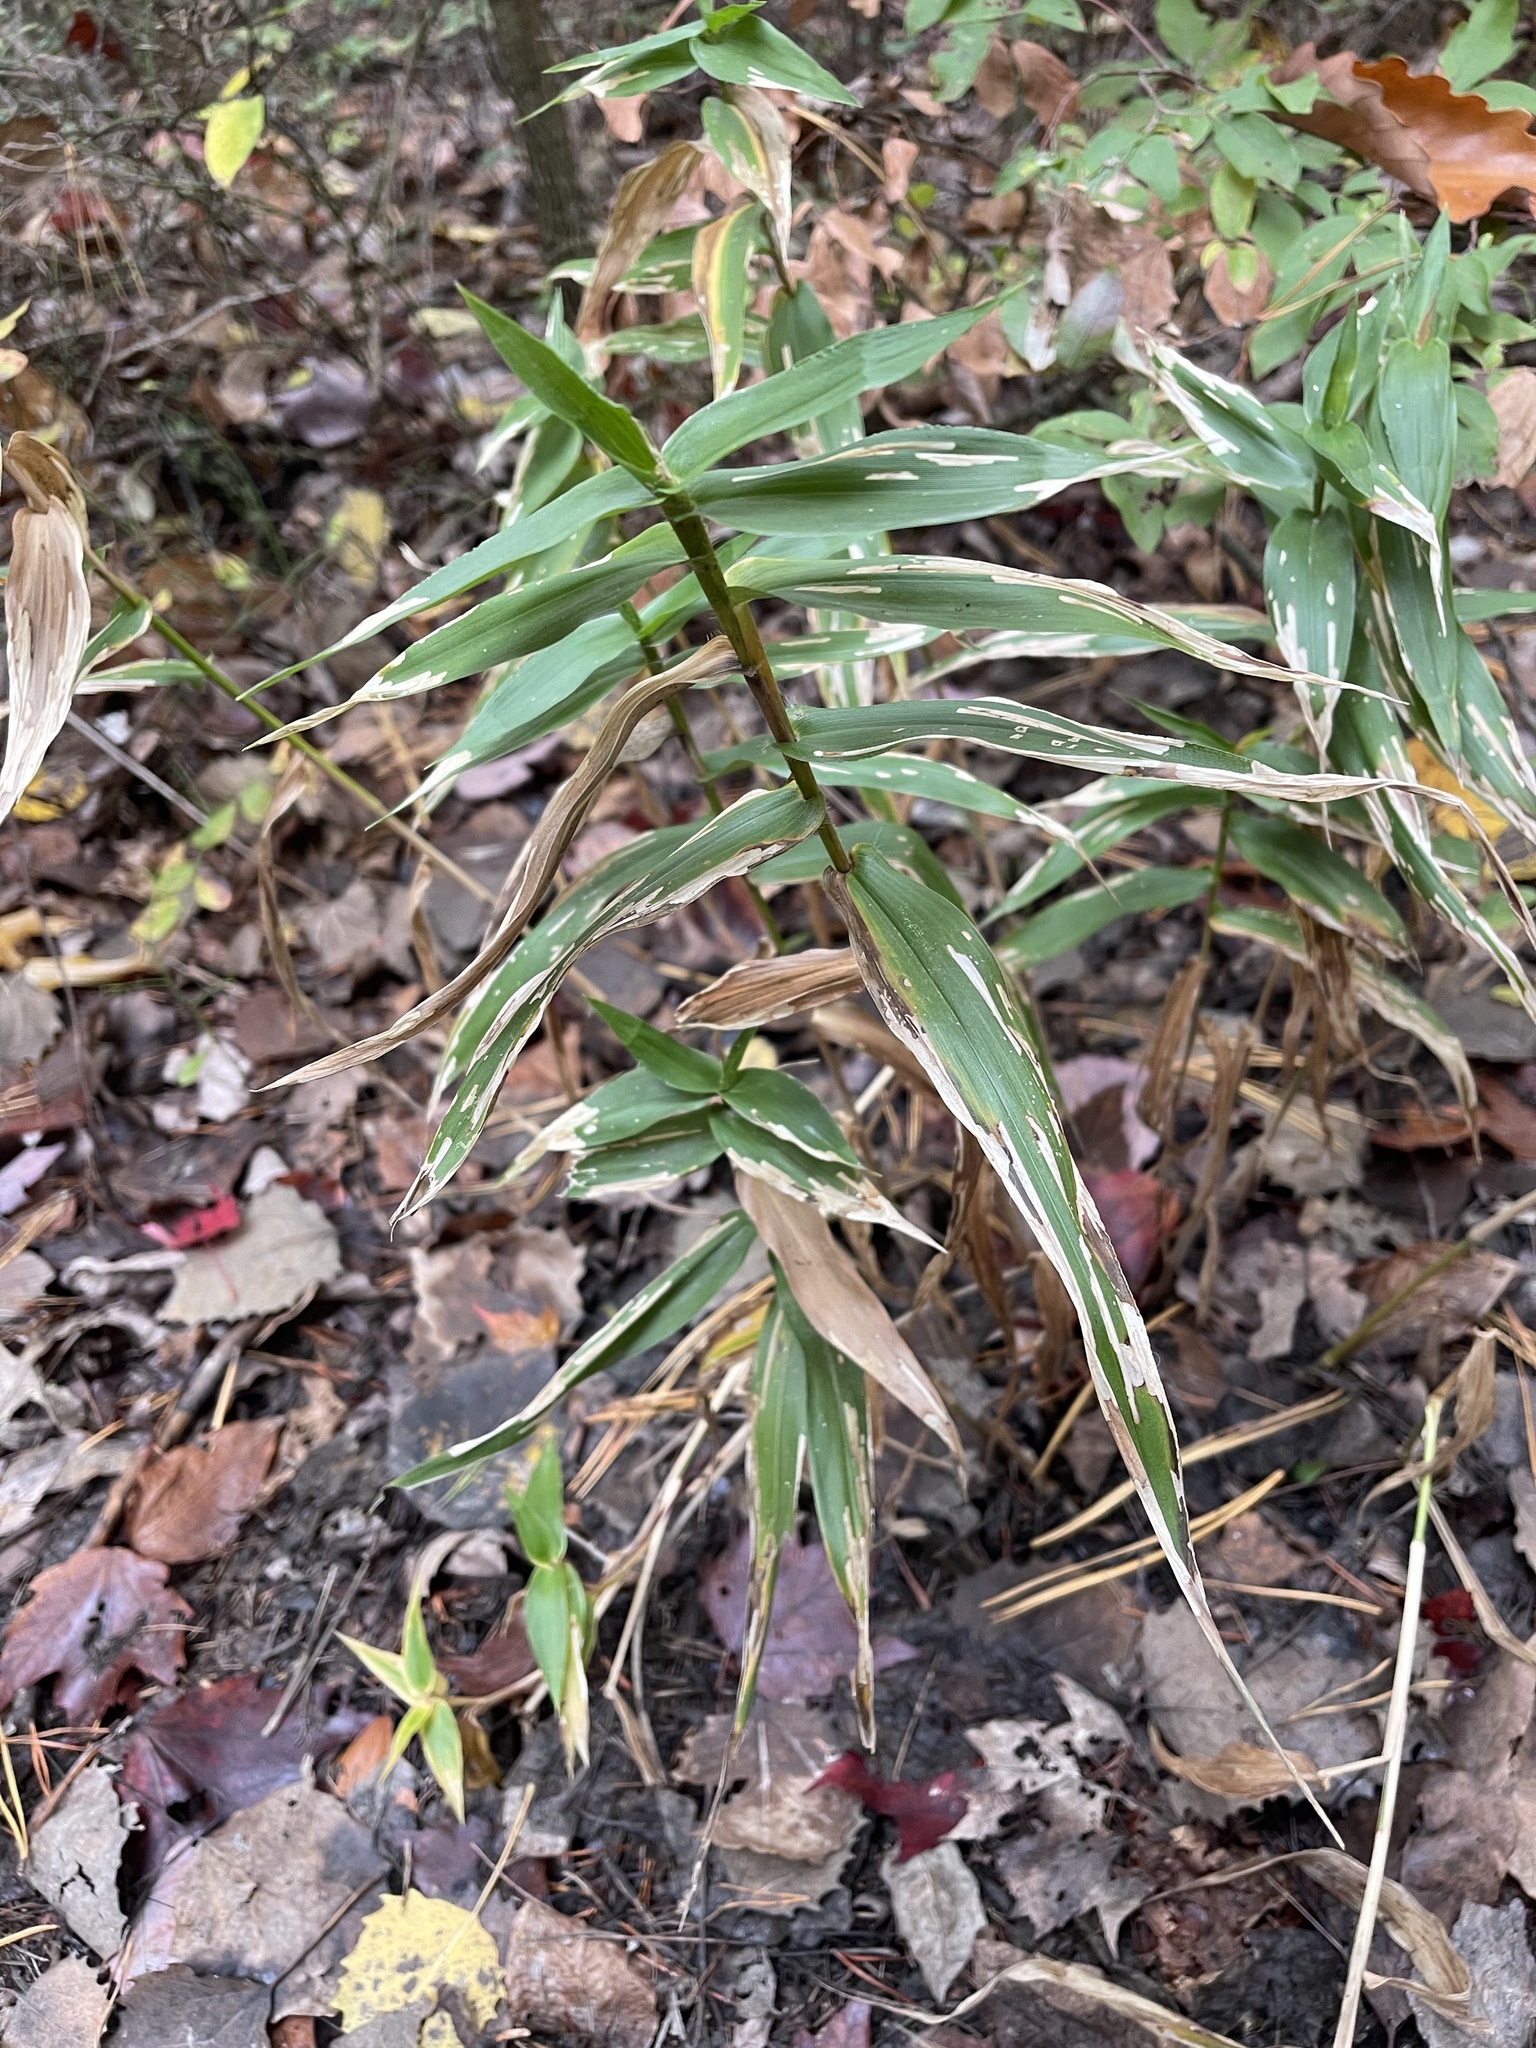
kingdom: Plantae
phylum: Tracheophyta
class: Liliopsida
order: Poales
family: Poaceae
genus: Dichanthelium
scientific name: Dichanthelium clandestinum
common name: Deer-tongue grass
